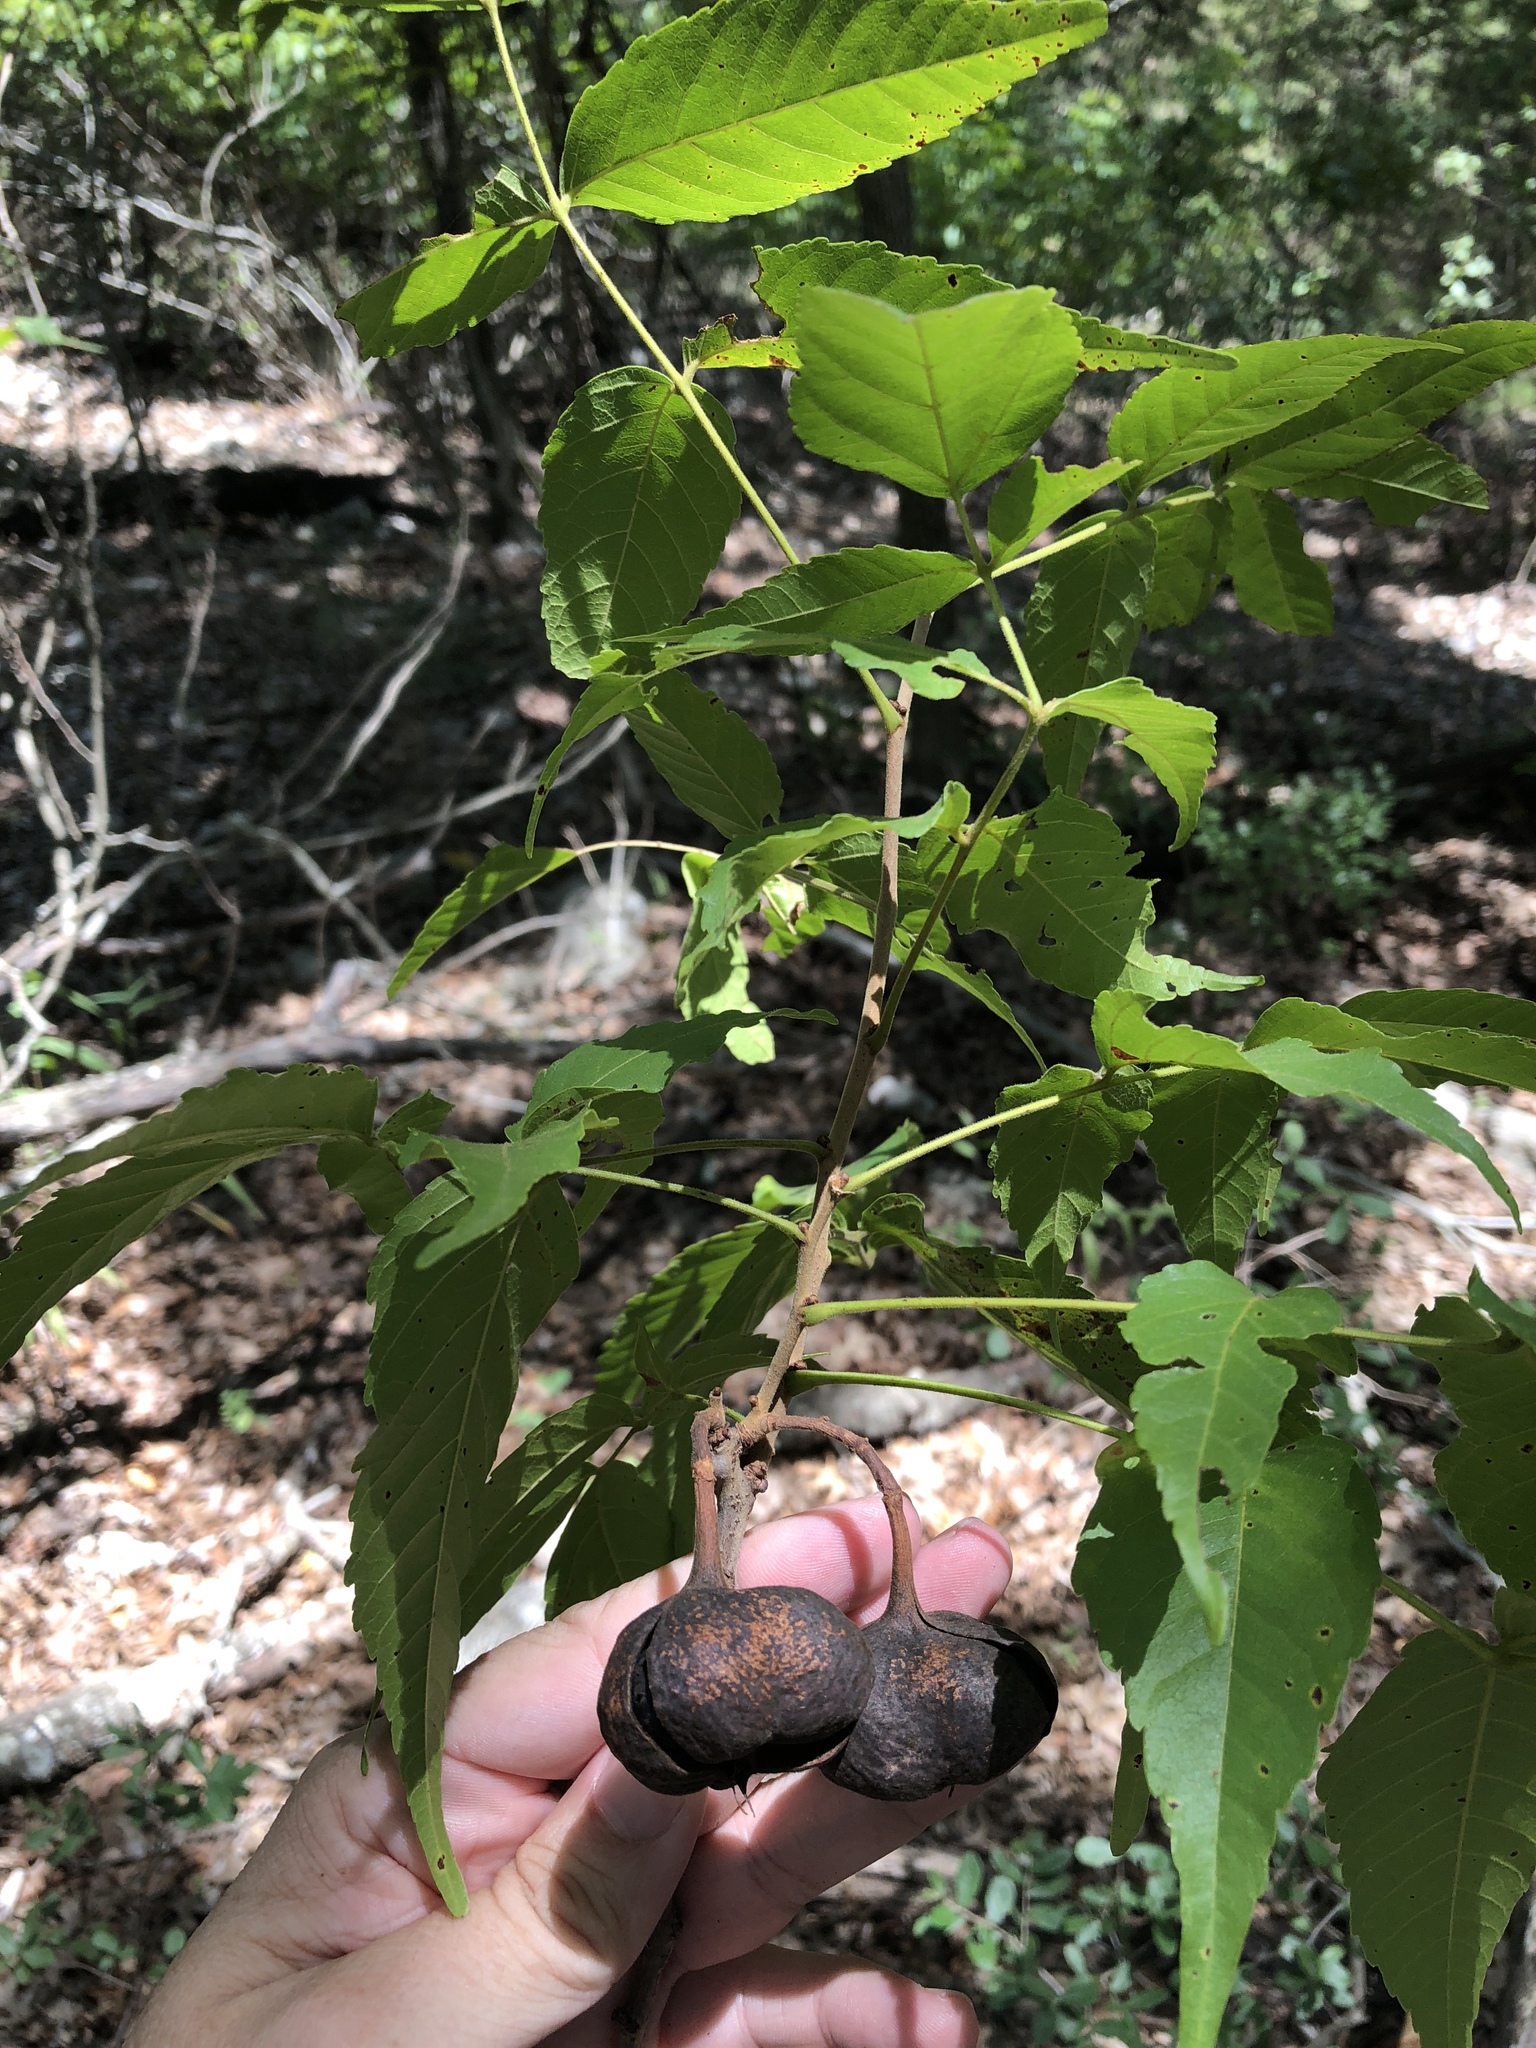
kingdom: Plantae
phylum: Tracheophyta
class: Magnoliopsida
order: Sapindales
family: Sapindaceae
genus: Ungnadia
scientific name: Ungnadia speciosa
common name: Texas-buckeye
